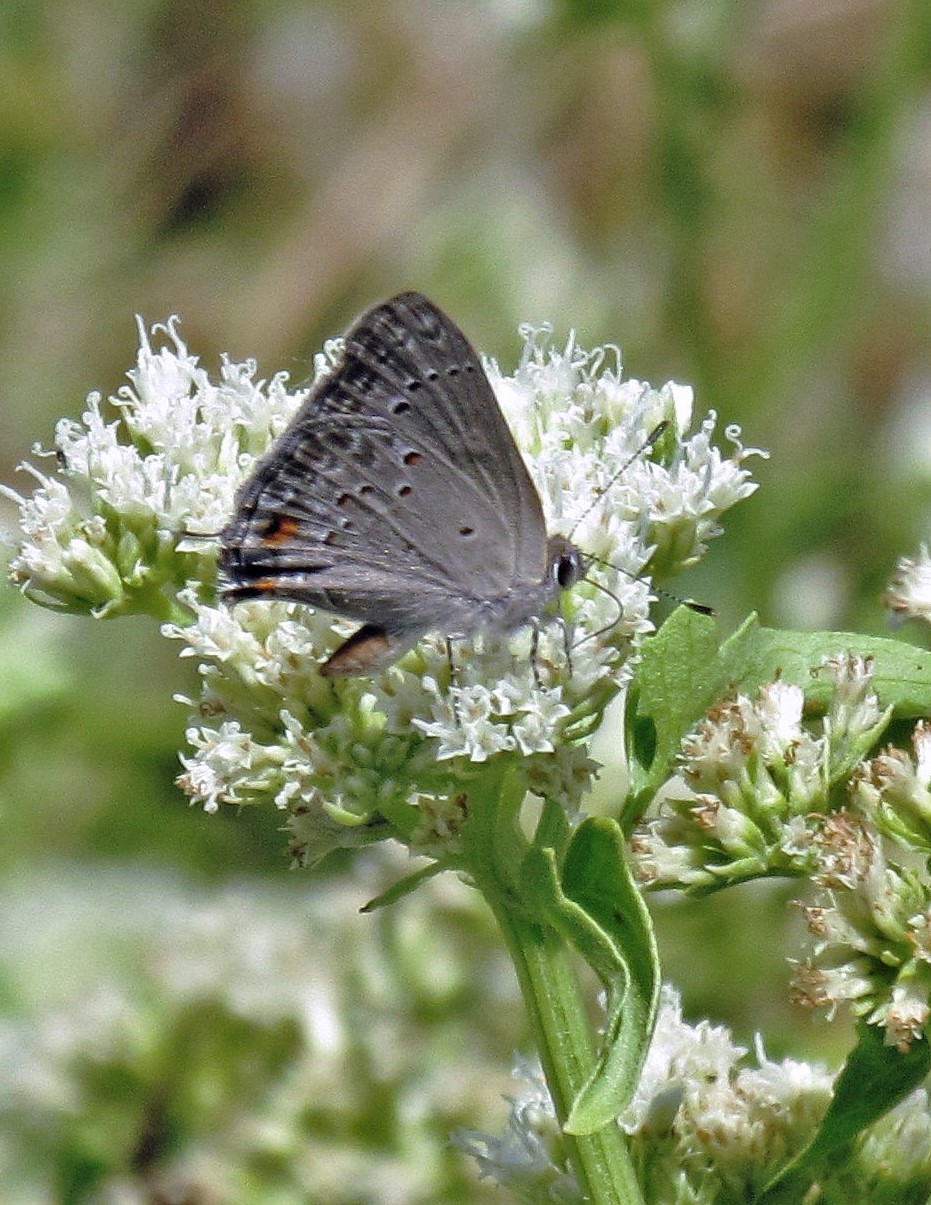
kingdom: Animalia
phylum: Arthropoda
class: Insecta
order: Lepidoptera
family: Lycaenidae
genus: Strymon
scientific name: Strymon eurytulus
